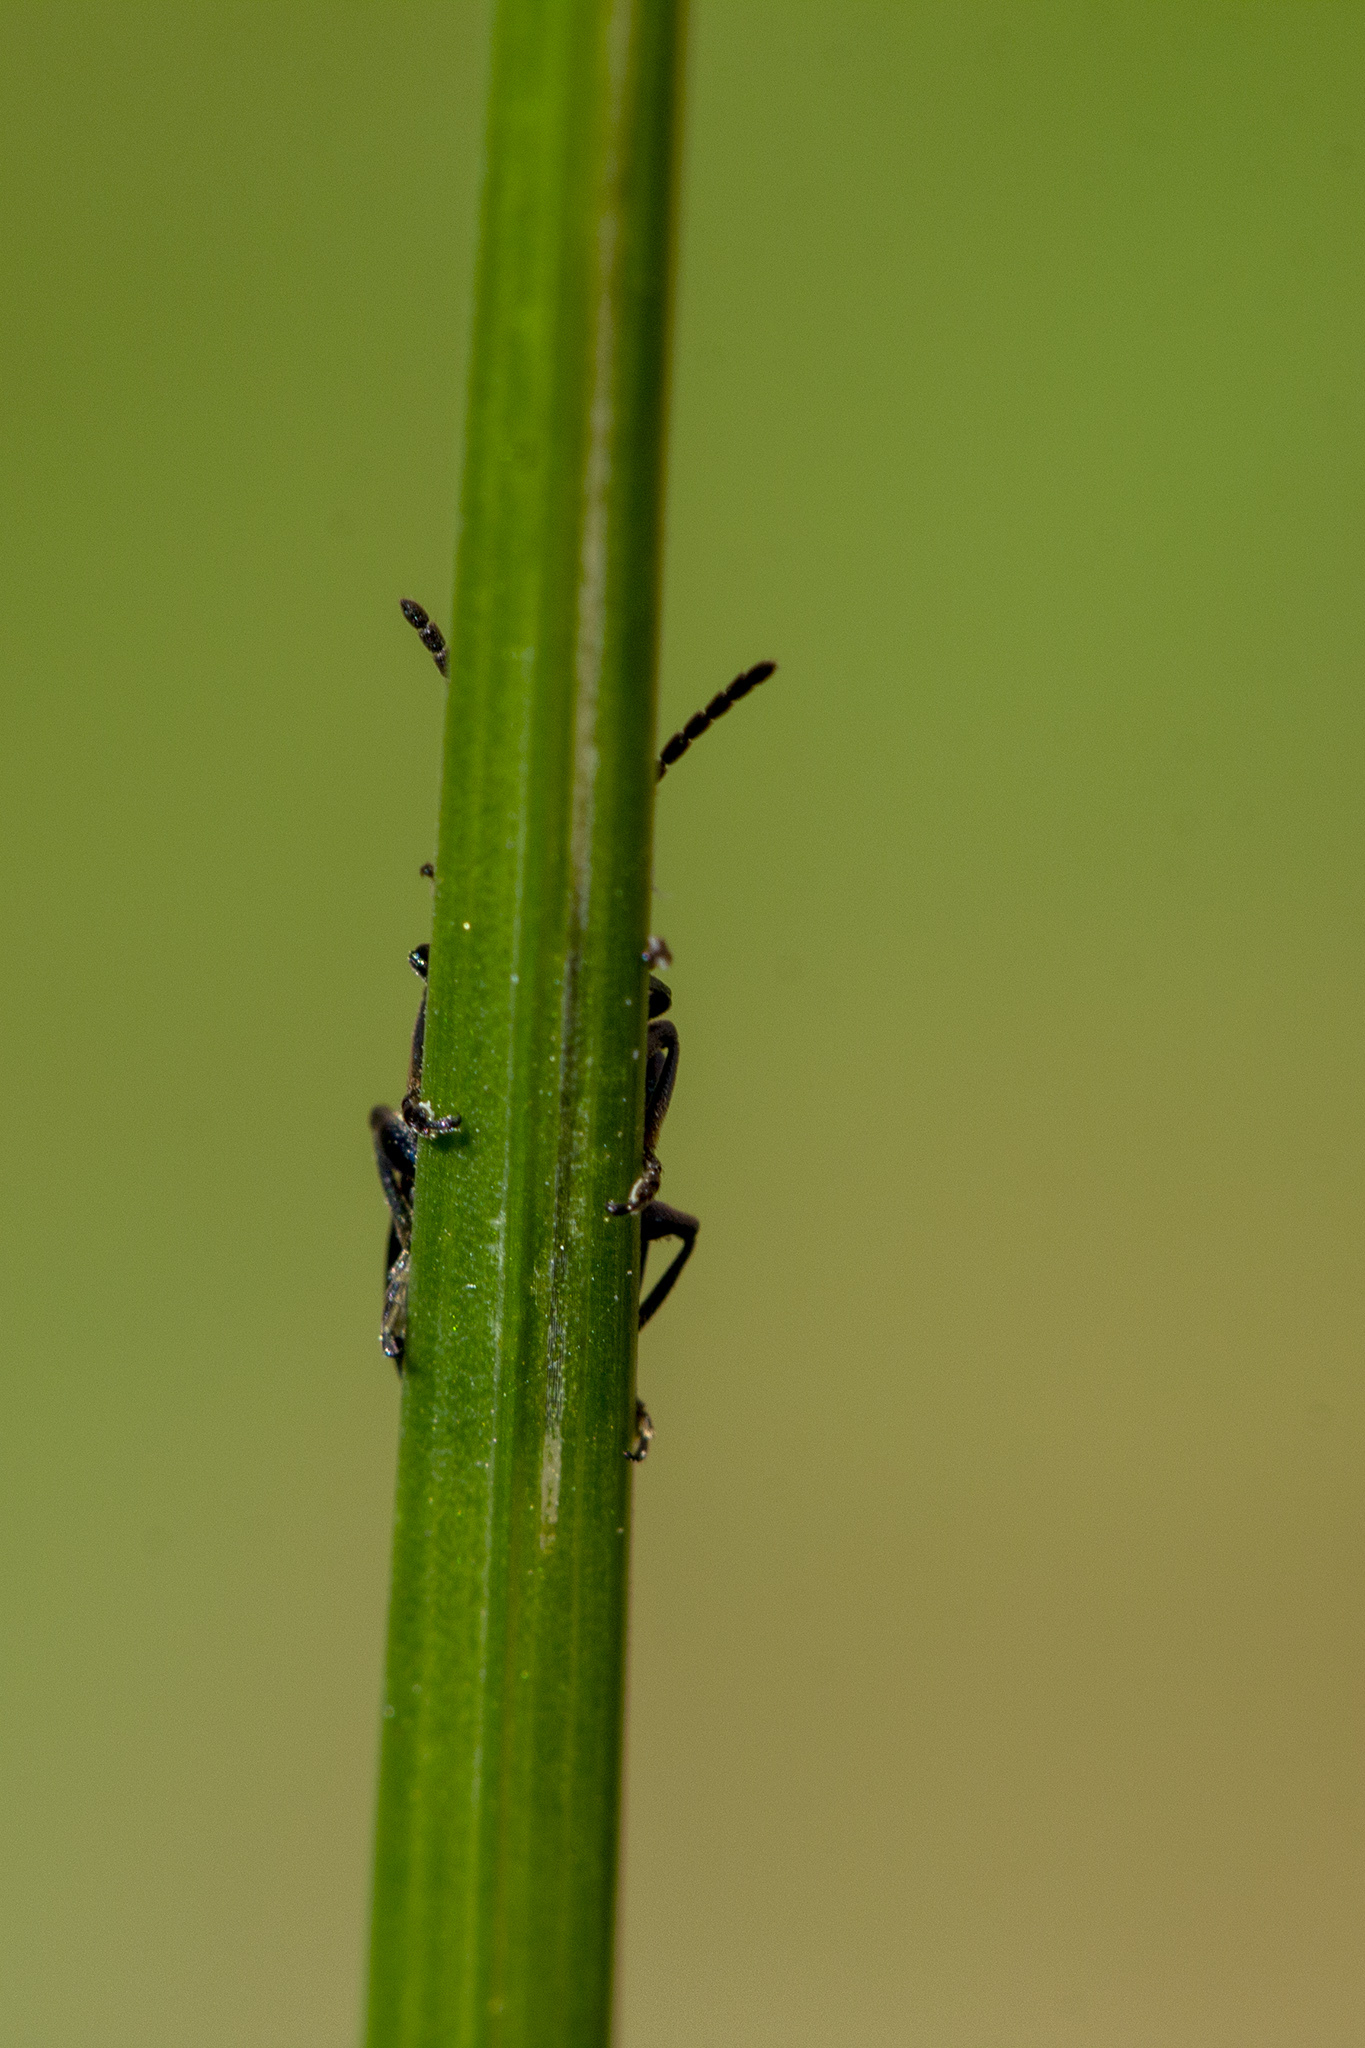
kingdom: Animalia
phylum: Arthropoda
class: Insecta
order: Coleoptera
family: Chrysomelidae
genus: Oulema
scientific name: Oulema gallaeciana
